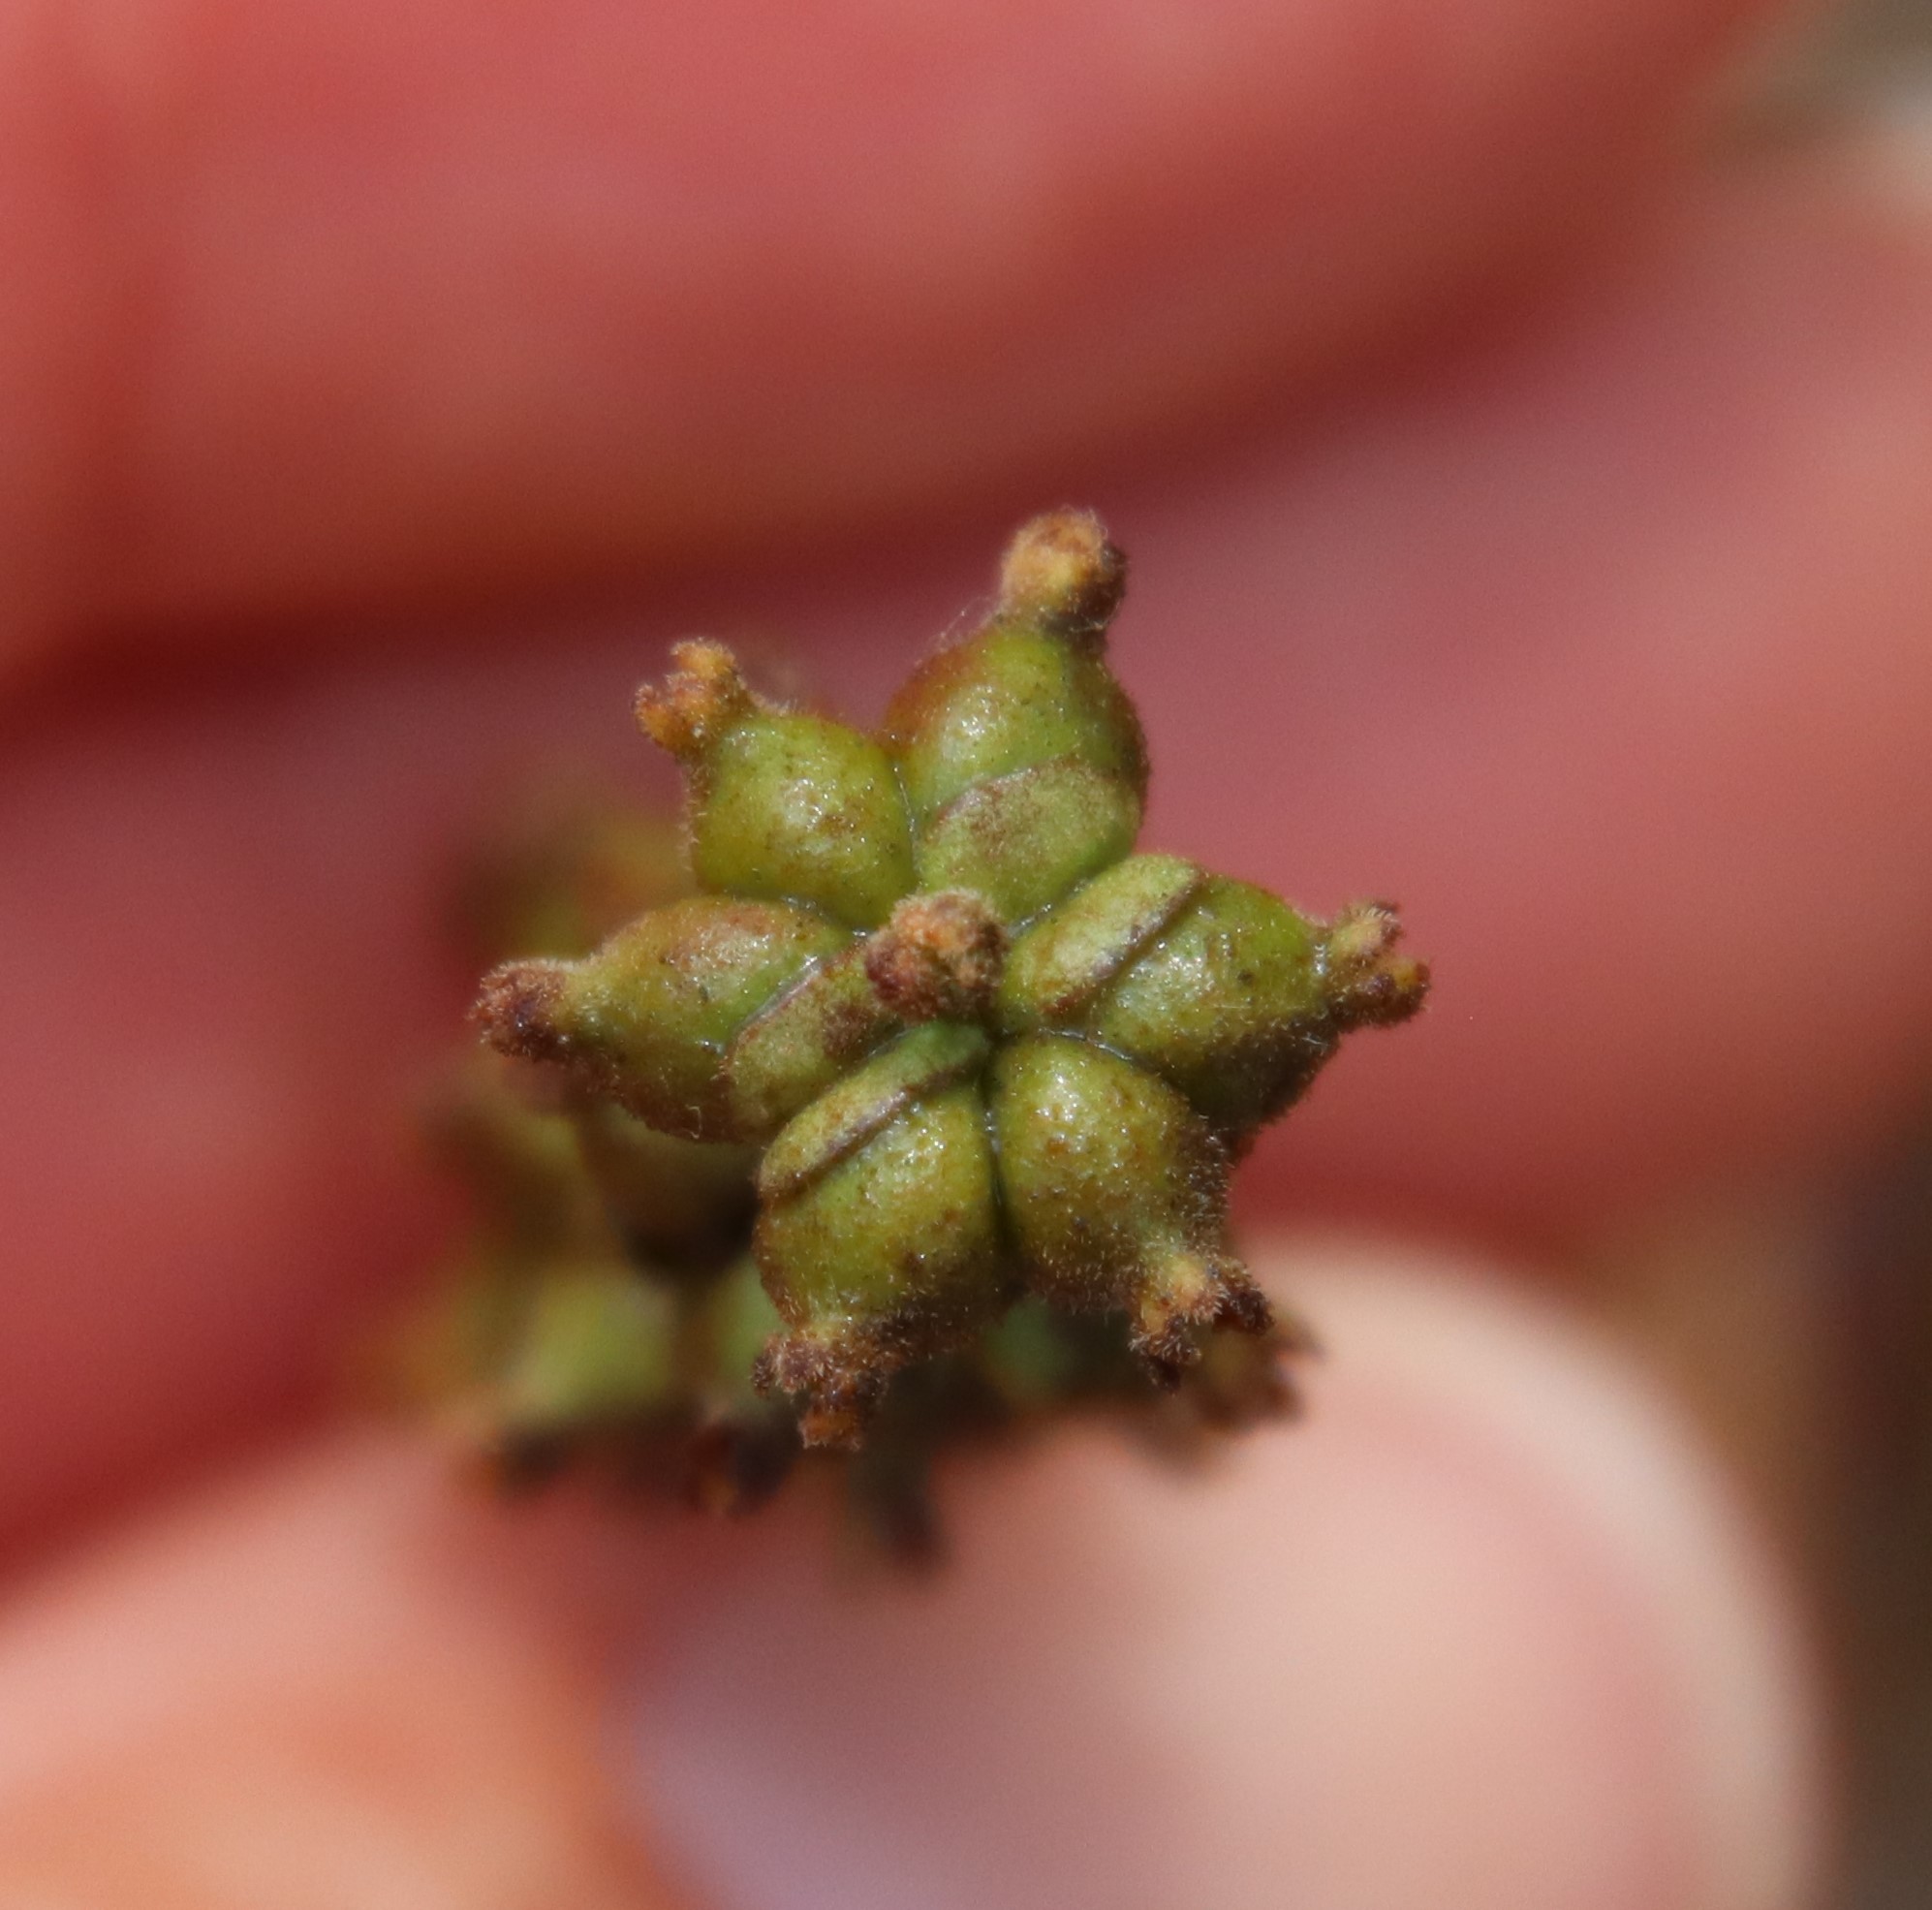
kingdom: Plantae
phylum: Tracheophyta
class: Magnoliopsida
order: Dipsacales
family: Caprifoliaceae
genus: Lonicera
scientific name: Lonicera subspicata
